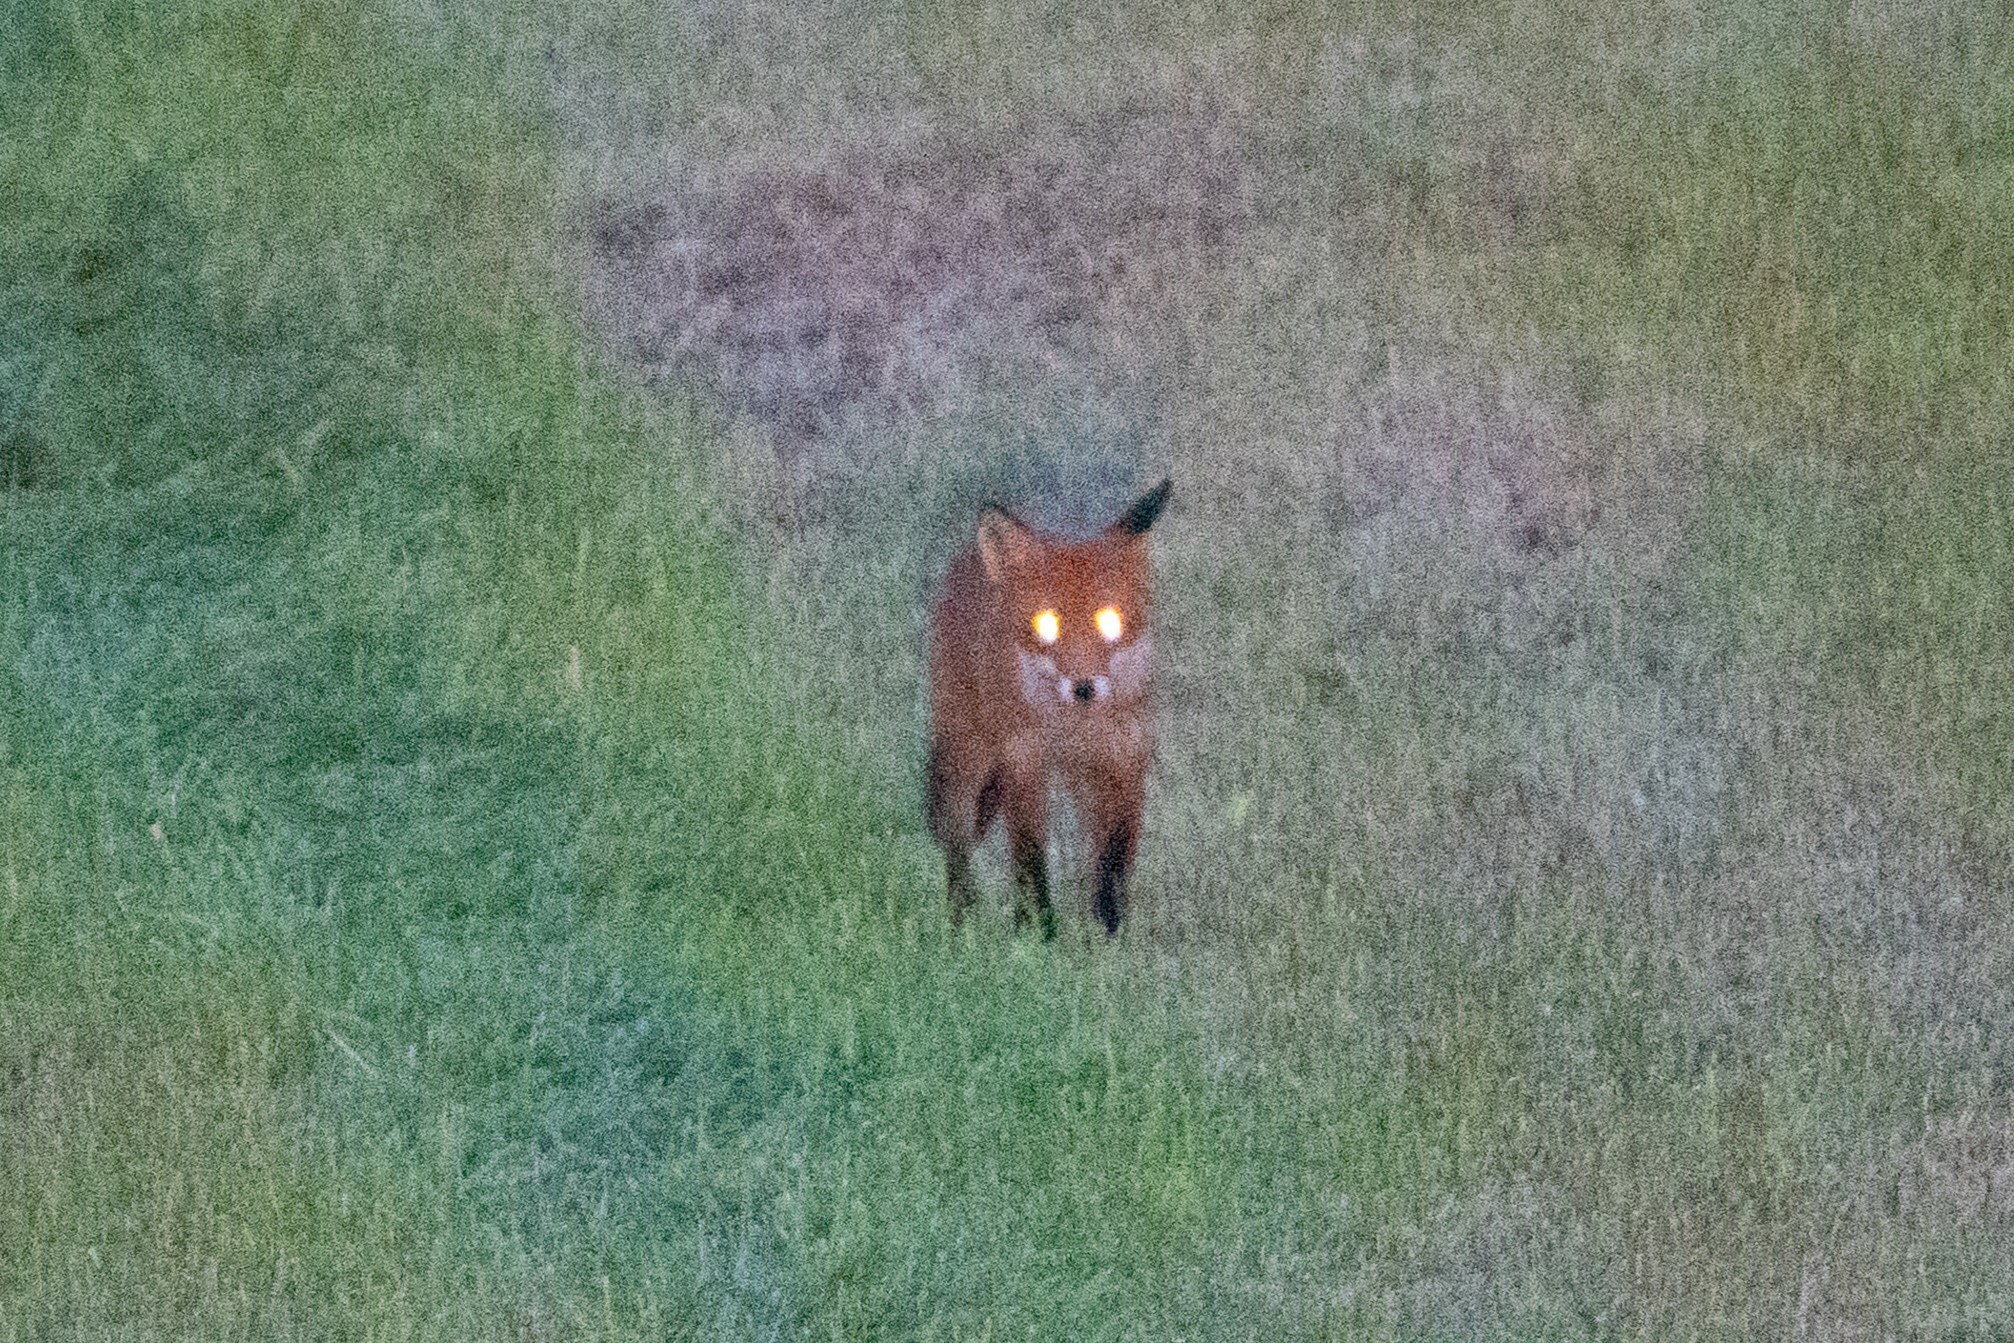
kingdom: Animalia
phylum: Chordata
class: Mammalia
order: Carnivora
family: Canidae
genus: Vulpes
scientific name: Vulpes vulpes
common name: Red fox
